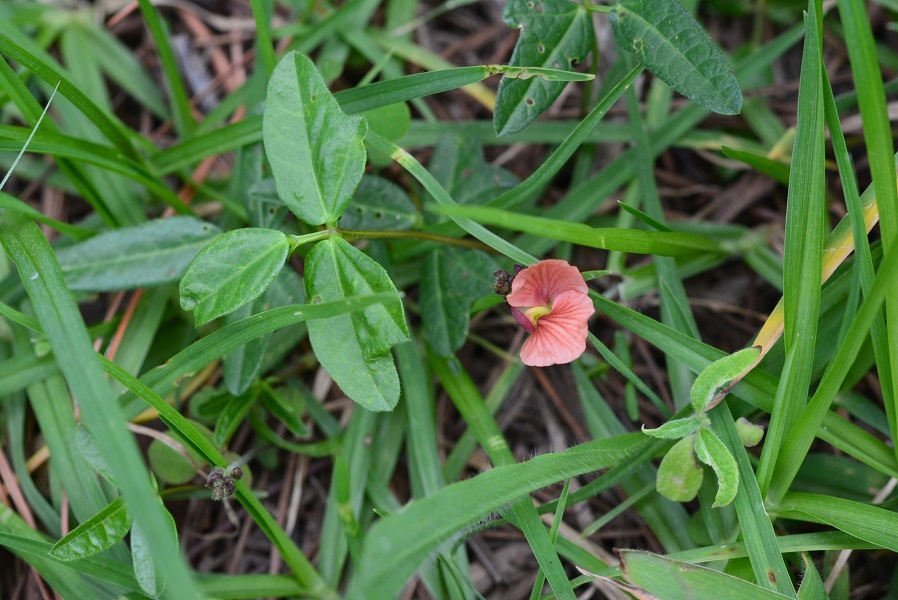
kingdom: Plantae
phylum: Tracheophyta
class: Magnoliopsida
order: Fabales
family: Fabaceae
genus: Macroptilium
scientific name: Macroptilium gibbosifolium
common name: Variableleaf bushbean
